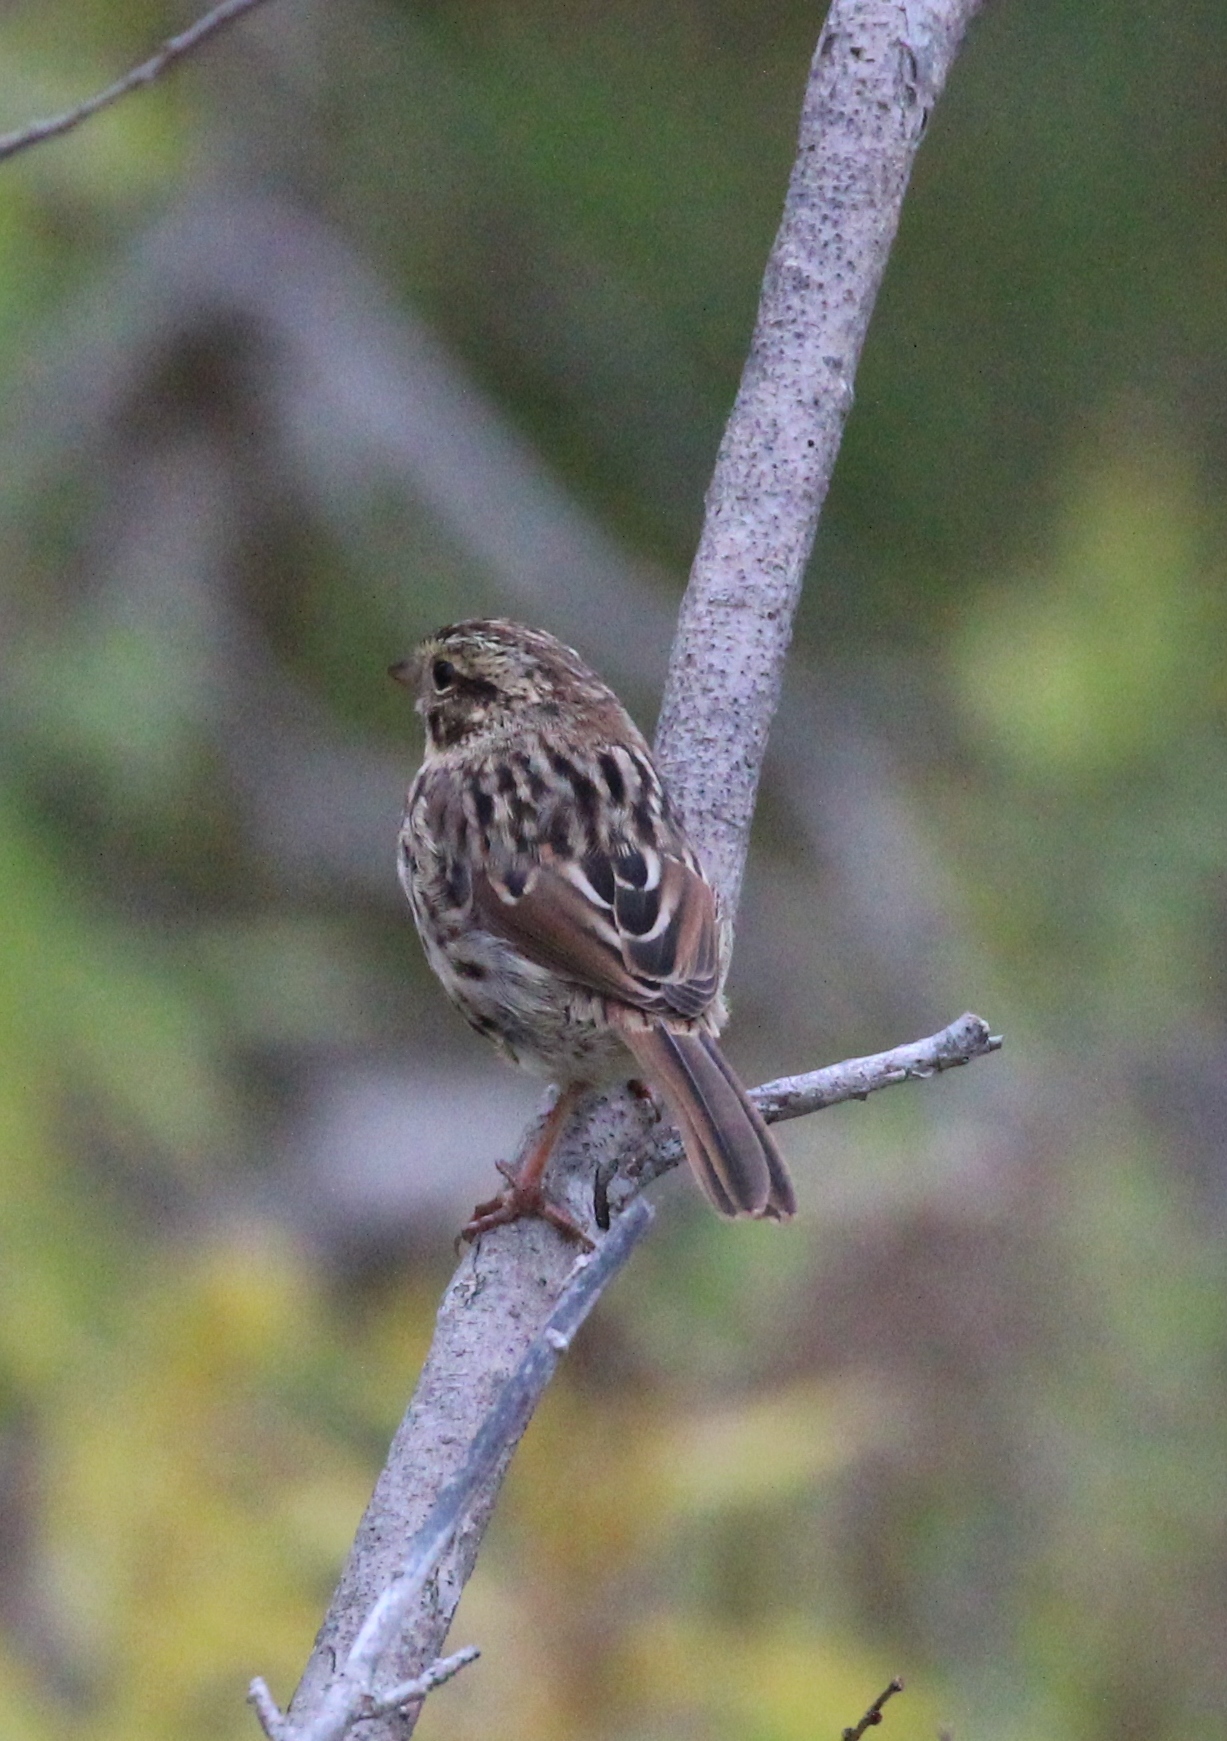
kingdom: Animalia
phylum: Chordata
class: Aves
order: Passeriformes
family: Passerellidae
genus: Melospiza
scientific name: Melospiza melodia
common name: Song sparrow
